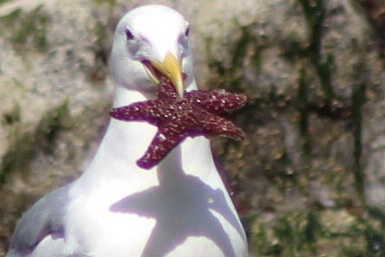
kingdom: Animalia
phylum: Echinodermata
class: Asteroidea
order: Forcipulatida
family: Asteriidae
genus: Pisaster
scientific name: Pisaster ochraceus
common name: Ochre stars
